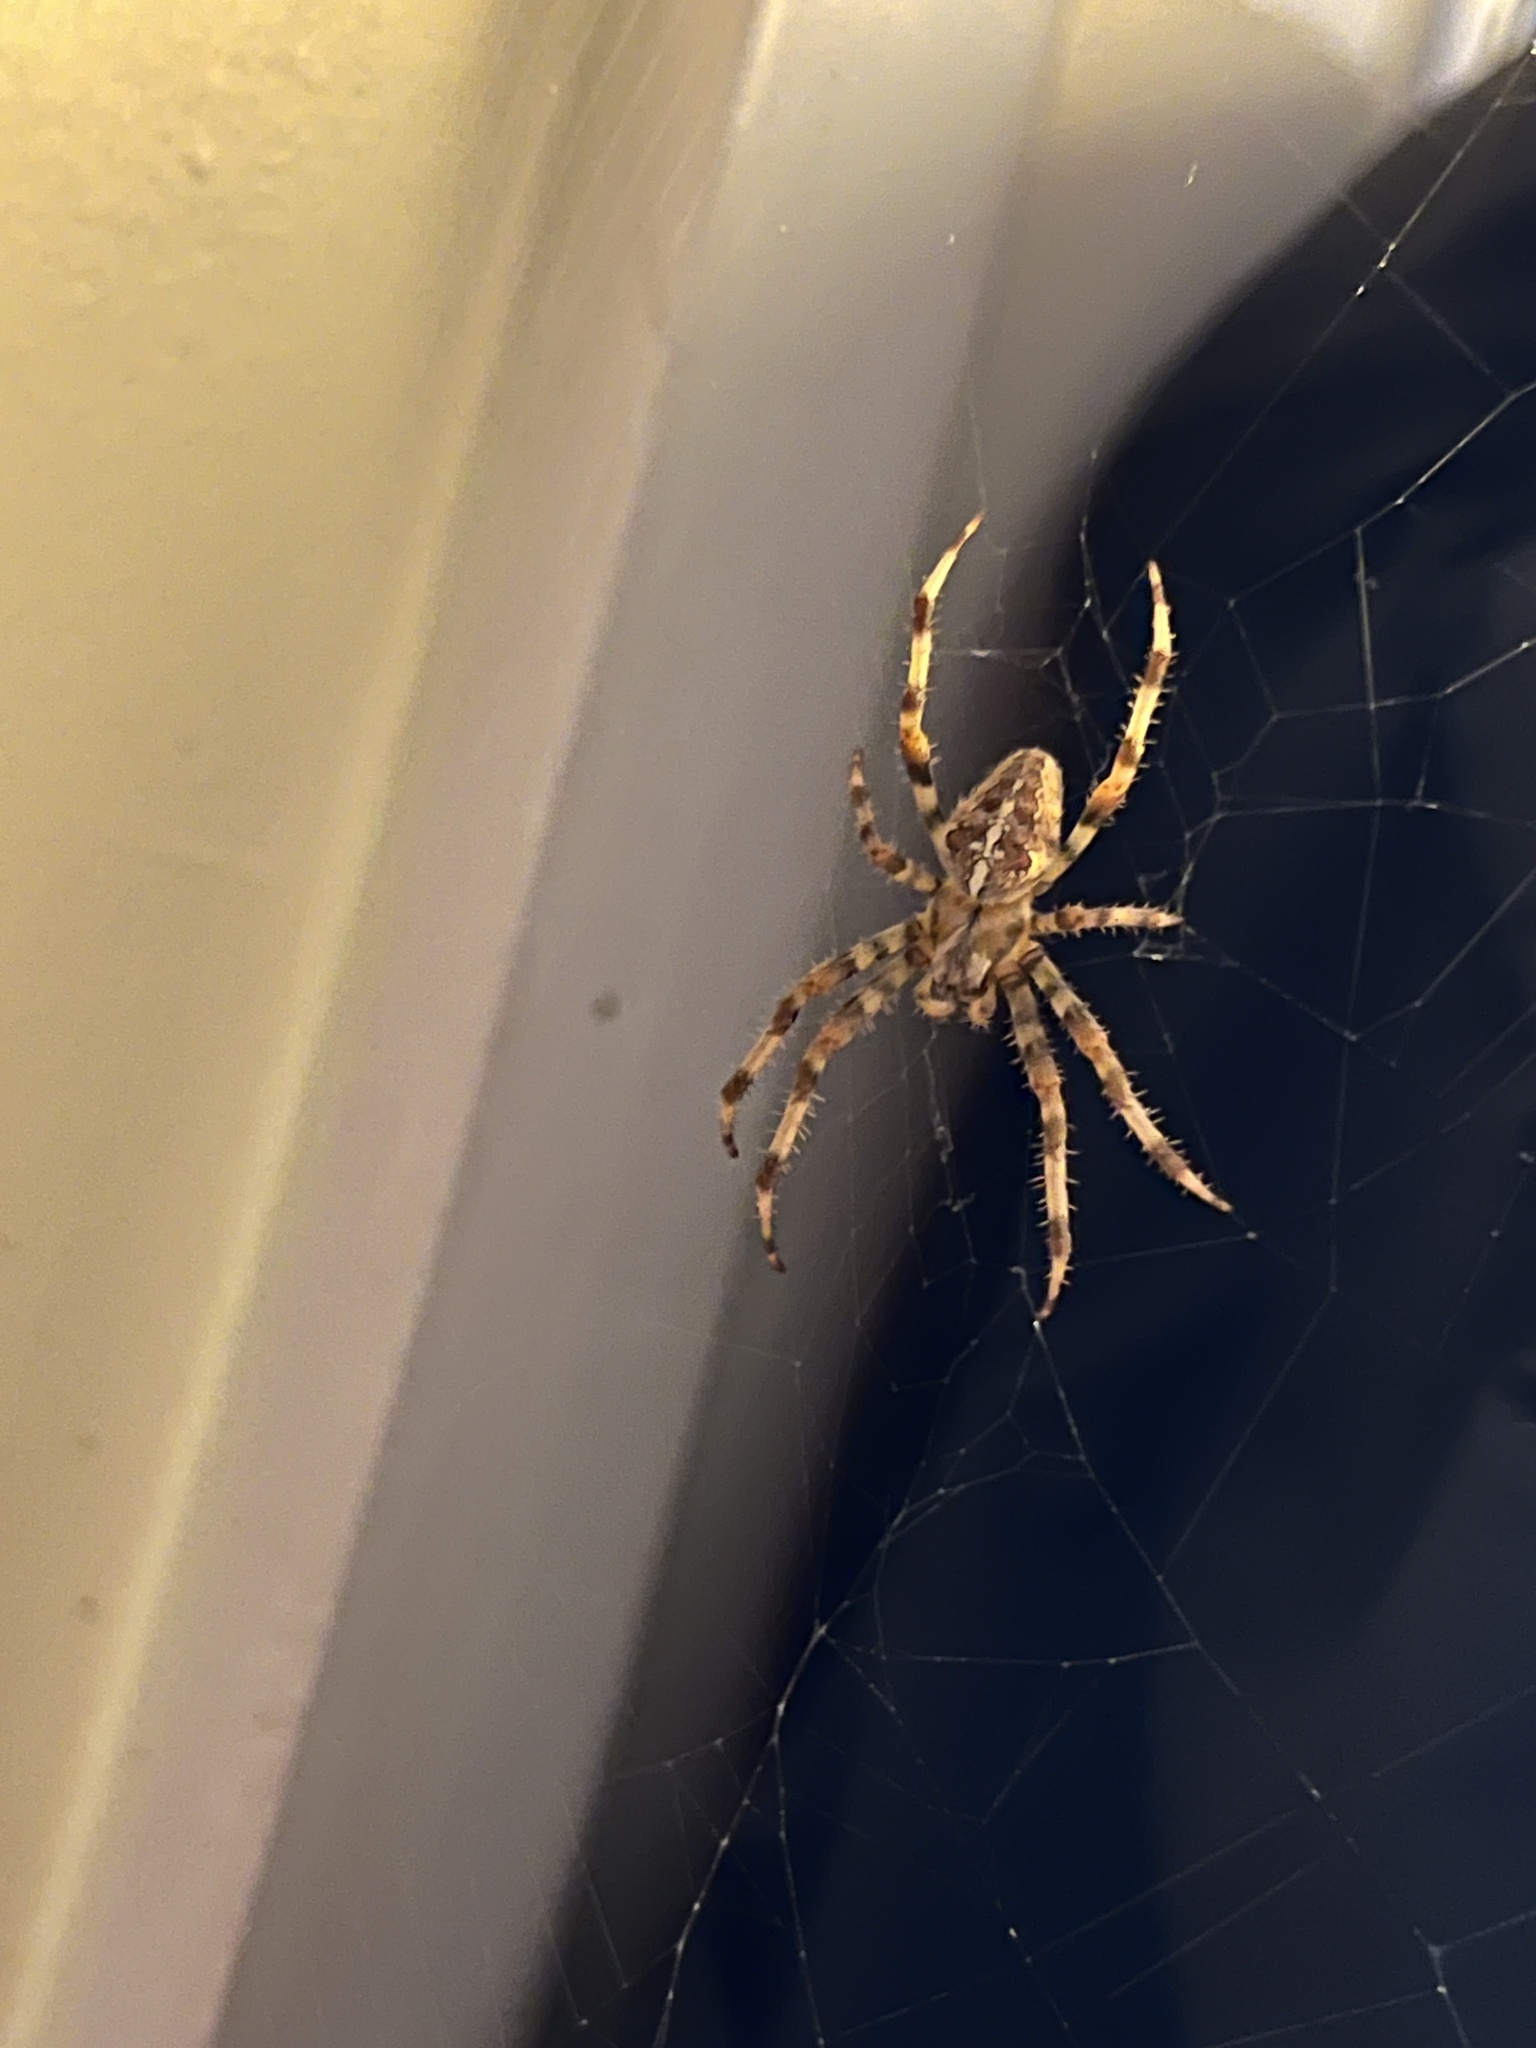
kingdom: Animalia
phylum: Arthropoda
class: Arachnida
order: Araneae
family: Araneidae
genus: Araneus
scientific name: Araneus diadematus
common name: Cross orbweaver
